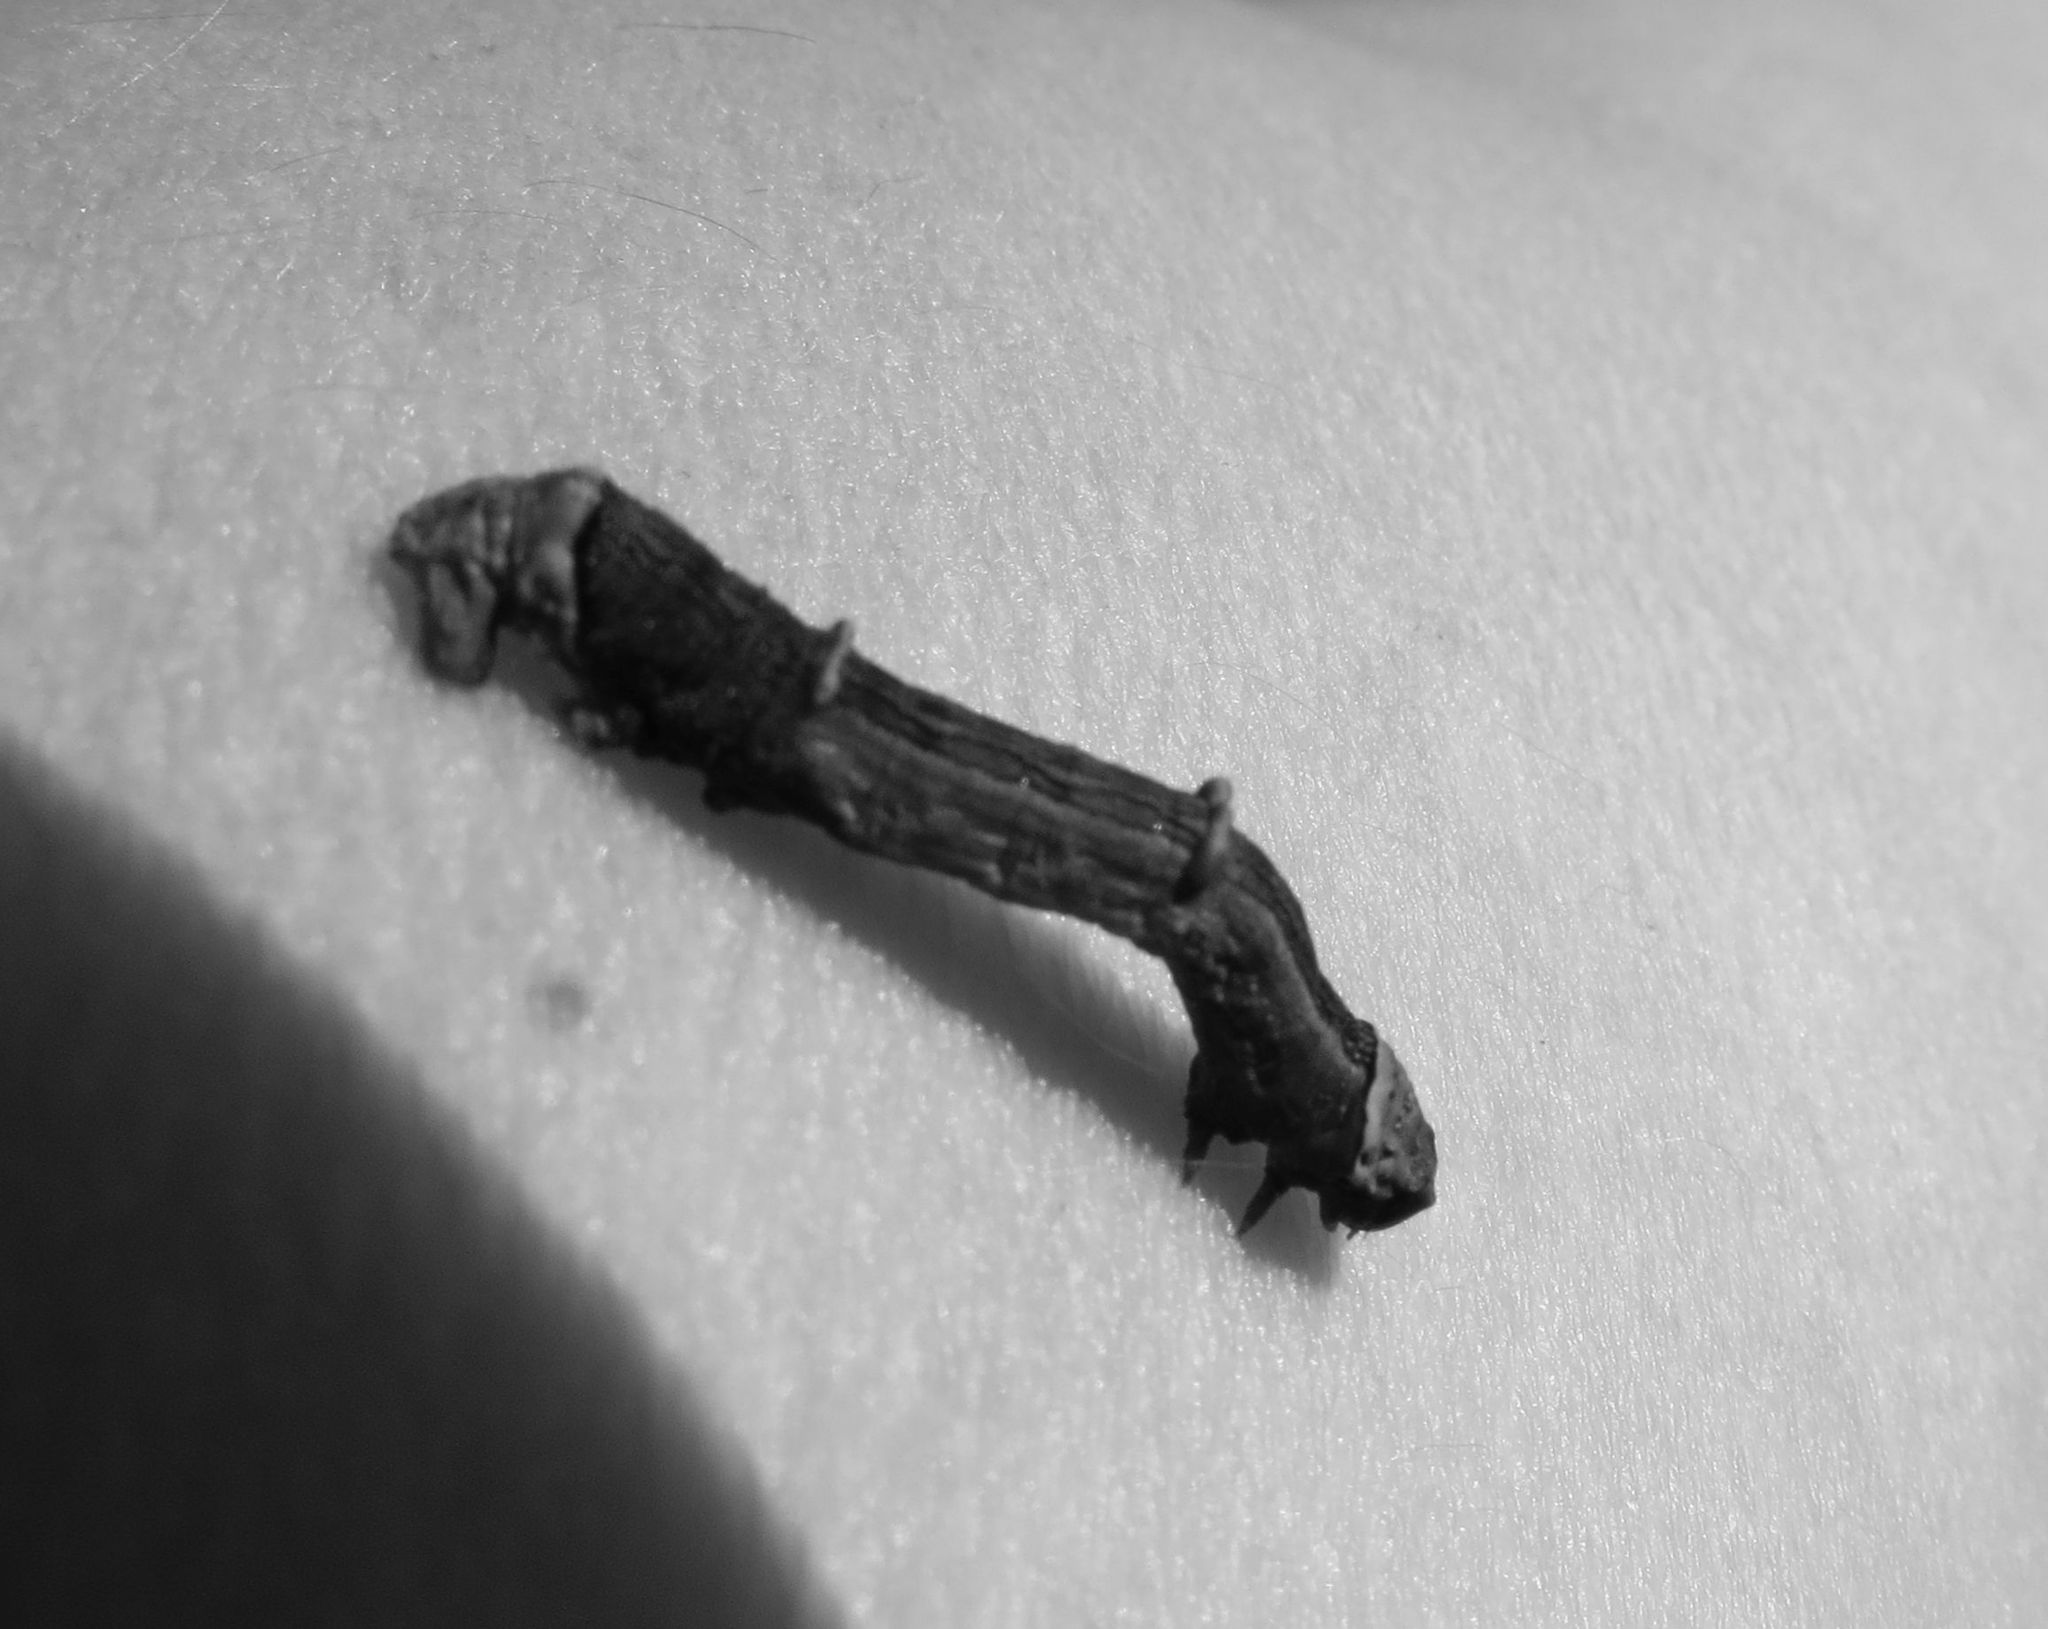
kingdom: Animalia
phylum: Arthropoda
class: Insecta
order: Lepidoptera
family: Geometridae
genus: Declana
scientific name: Declana
